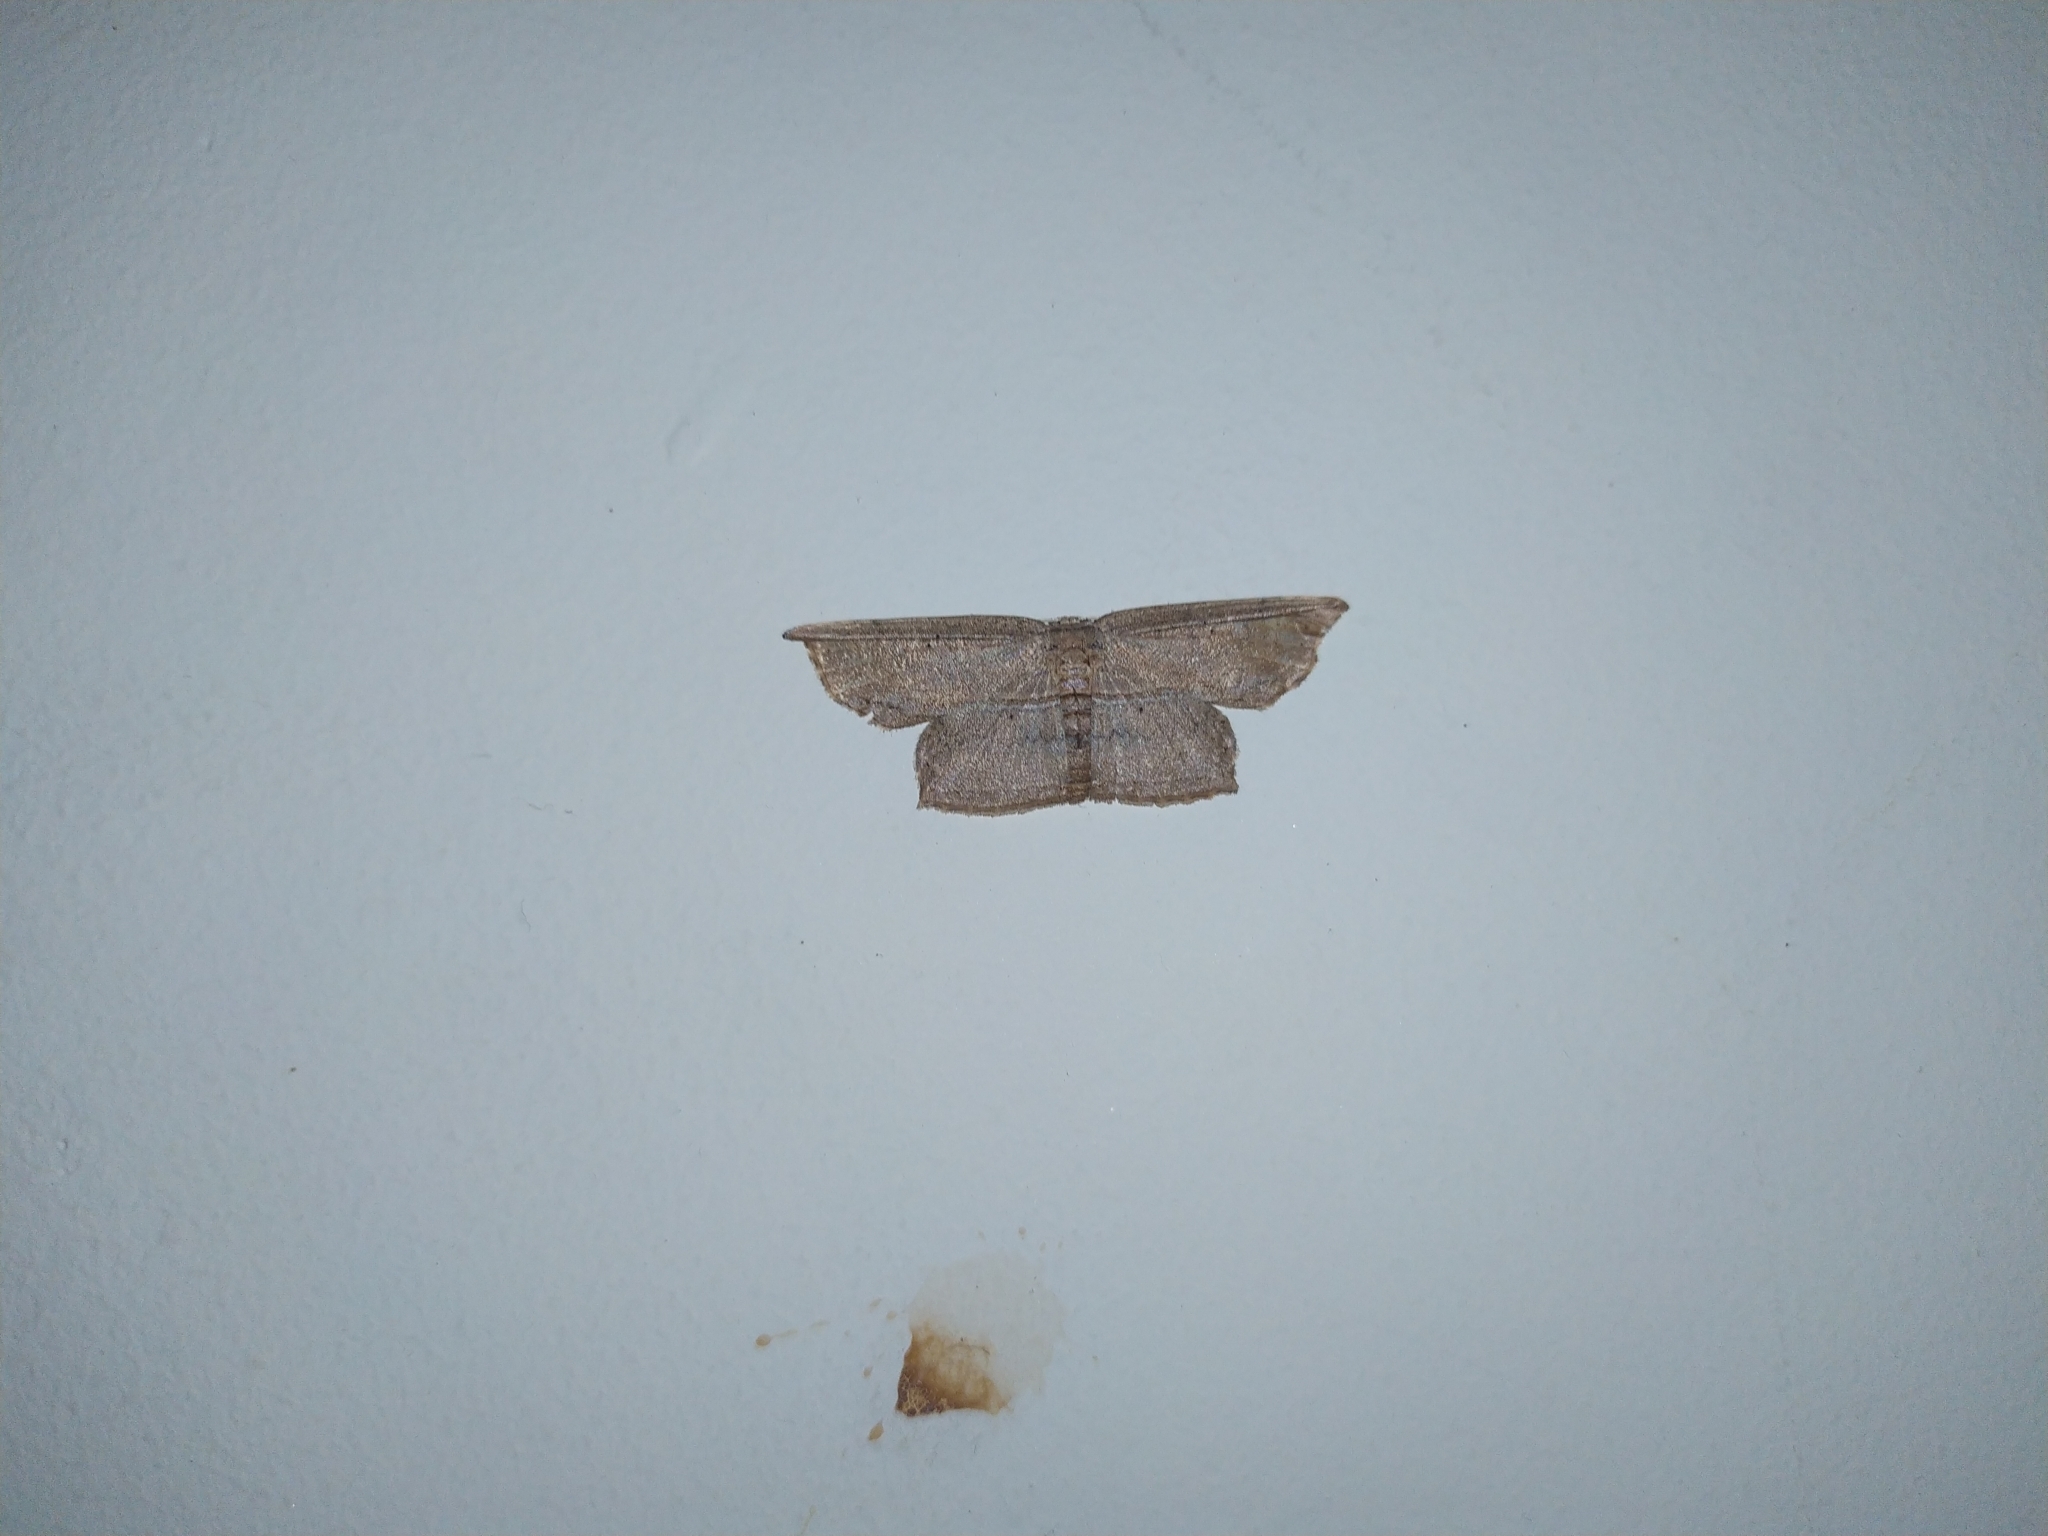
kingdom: Animalia
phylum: Arthropoda
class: Insecta
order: Lepidoptera
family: Drepanidae
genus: Phalacra
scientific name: Phalacra vidhisara
